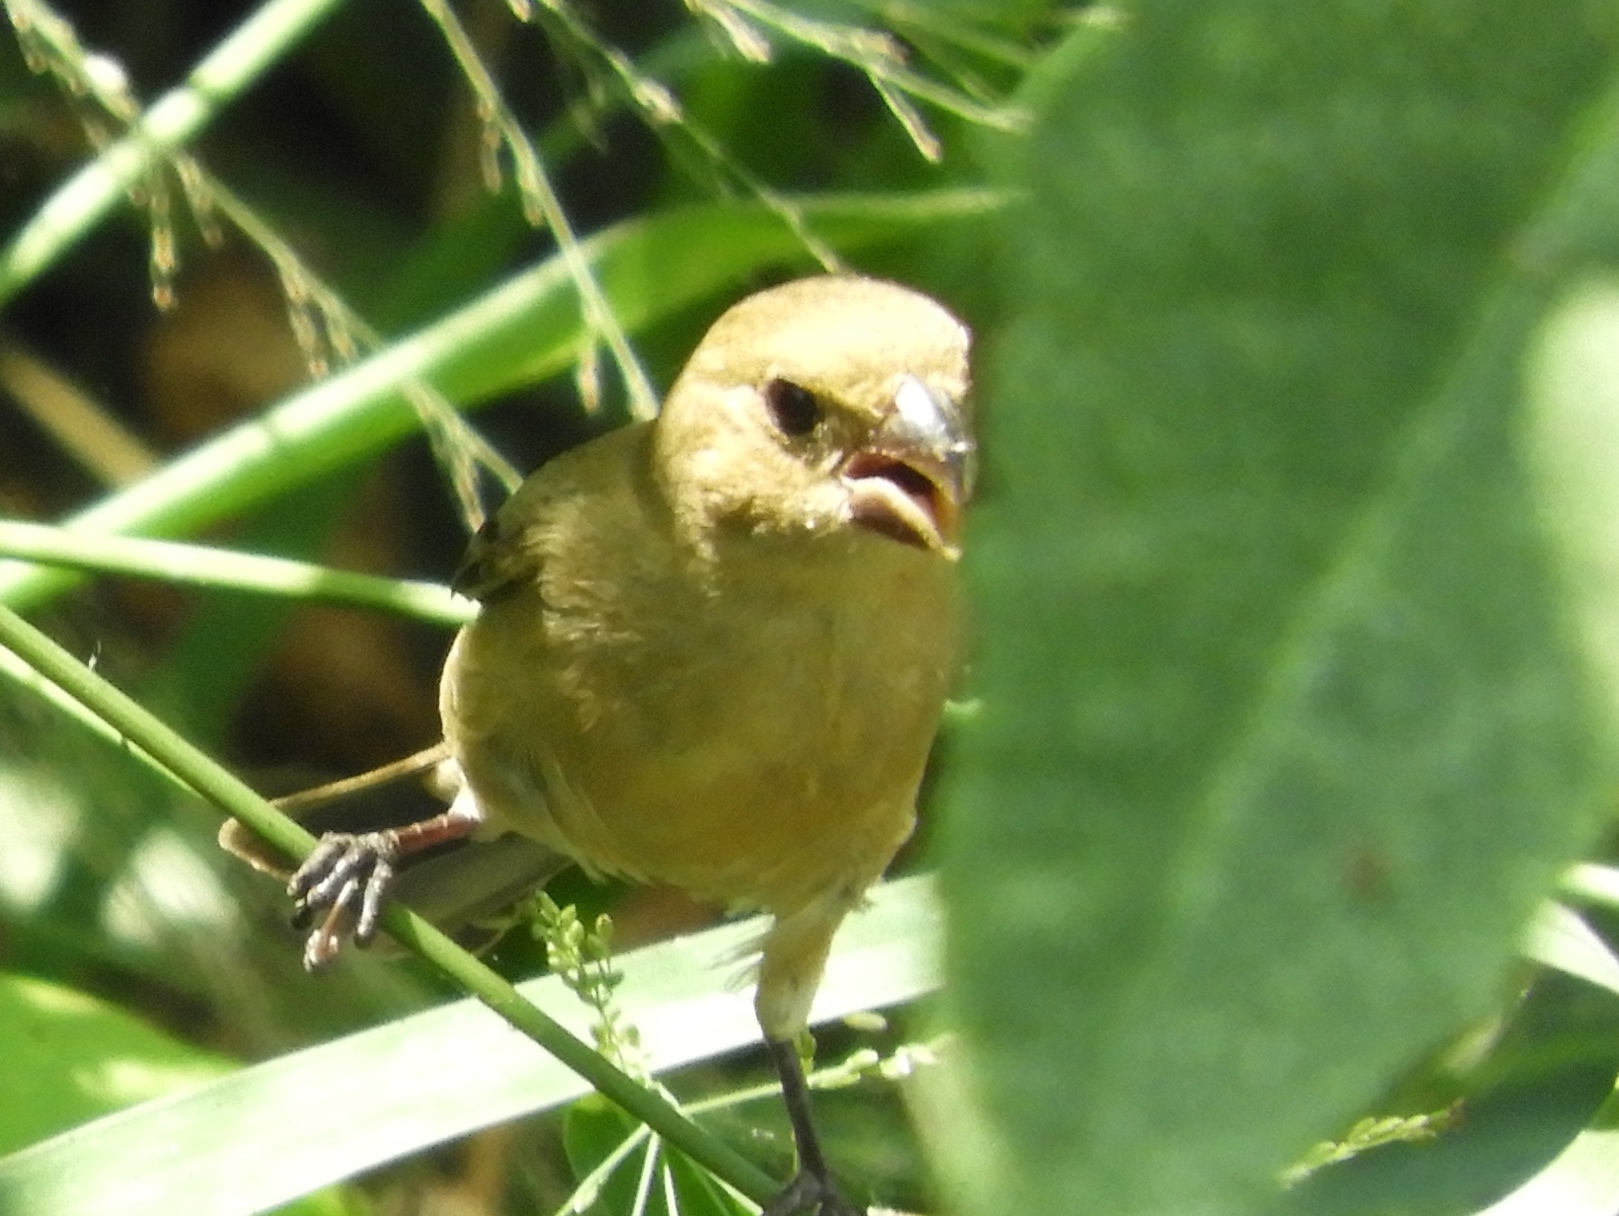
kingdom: Animalia
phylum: Chordata
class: Aves
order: Passeriformes
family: Thraupidae
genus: Sporophila
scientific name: Sporophila torqueola
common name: White-collared seedeater
